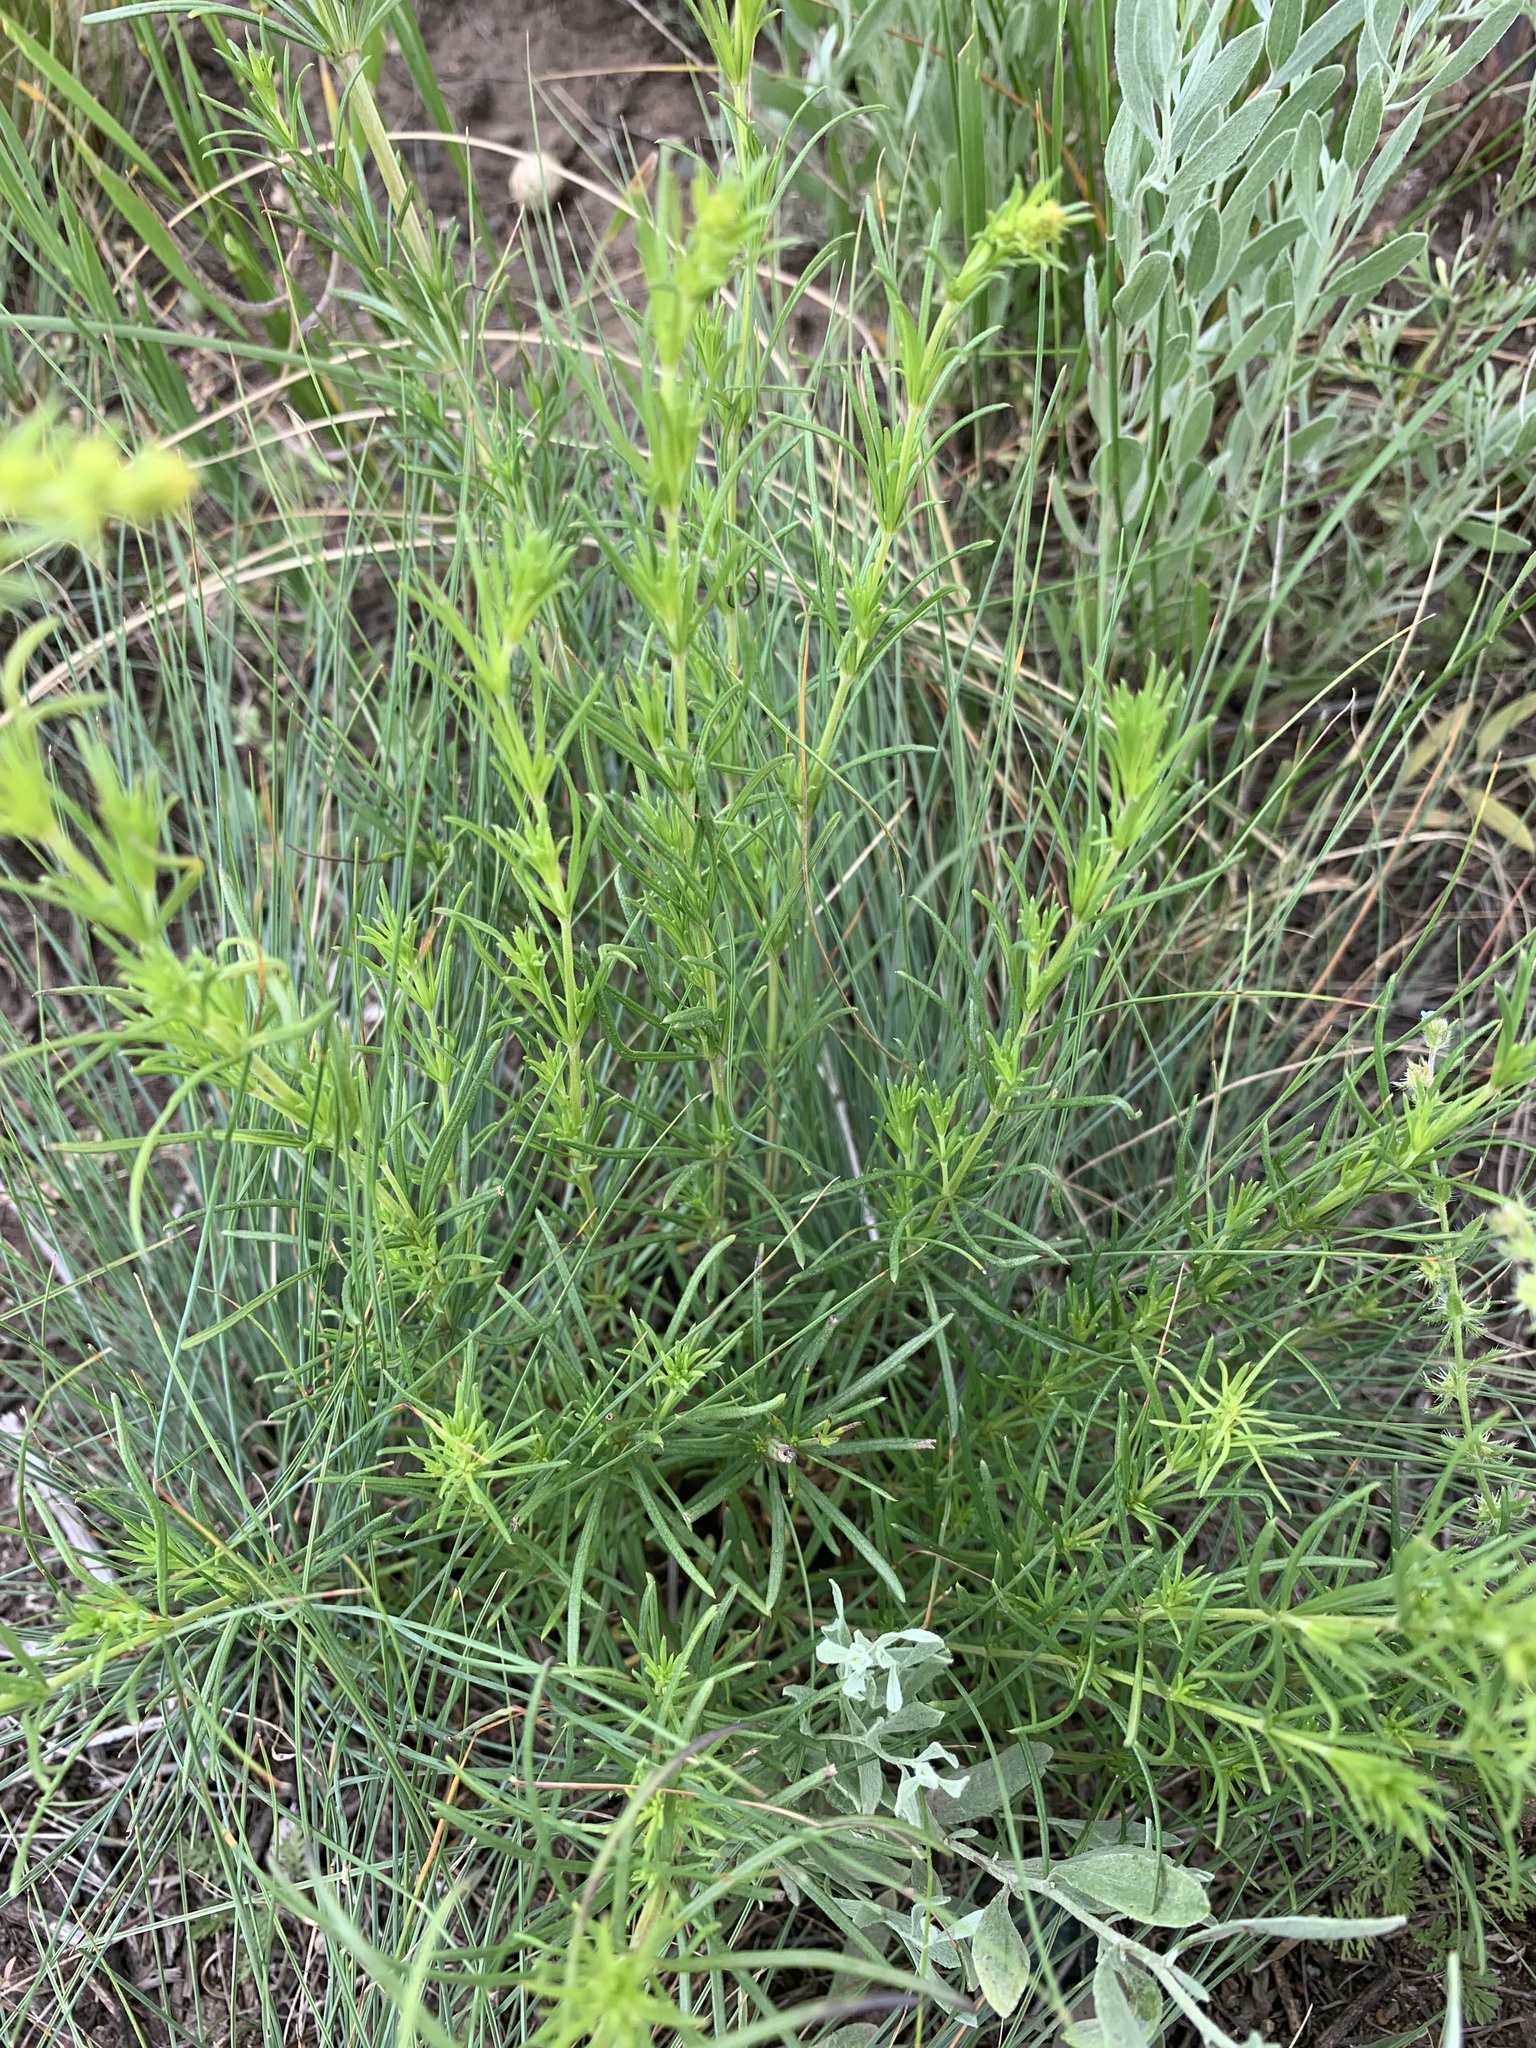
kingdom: Plantae
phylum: Tracheophyta
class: Magnoliopsida
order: Gentianales
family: Rubiaceae
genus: Galium
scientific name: Galium verum
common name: Lady's bedstraw
